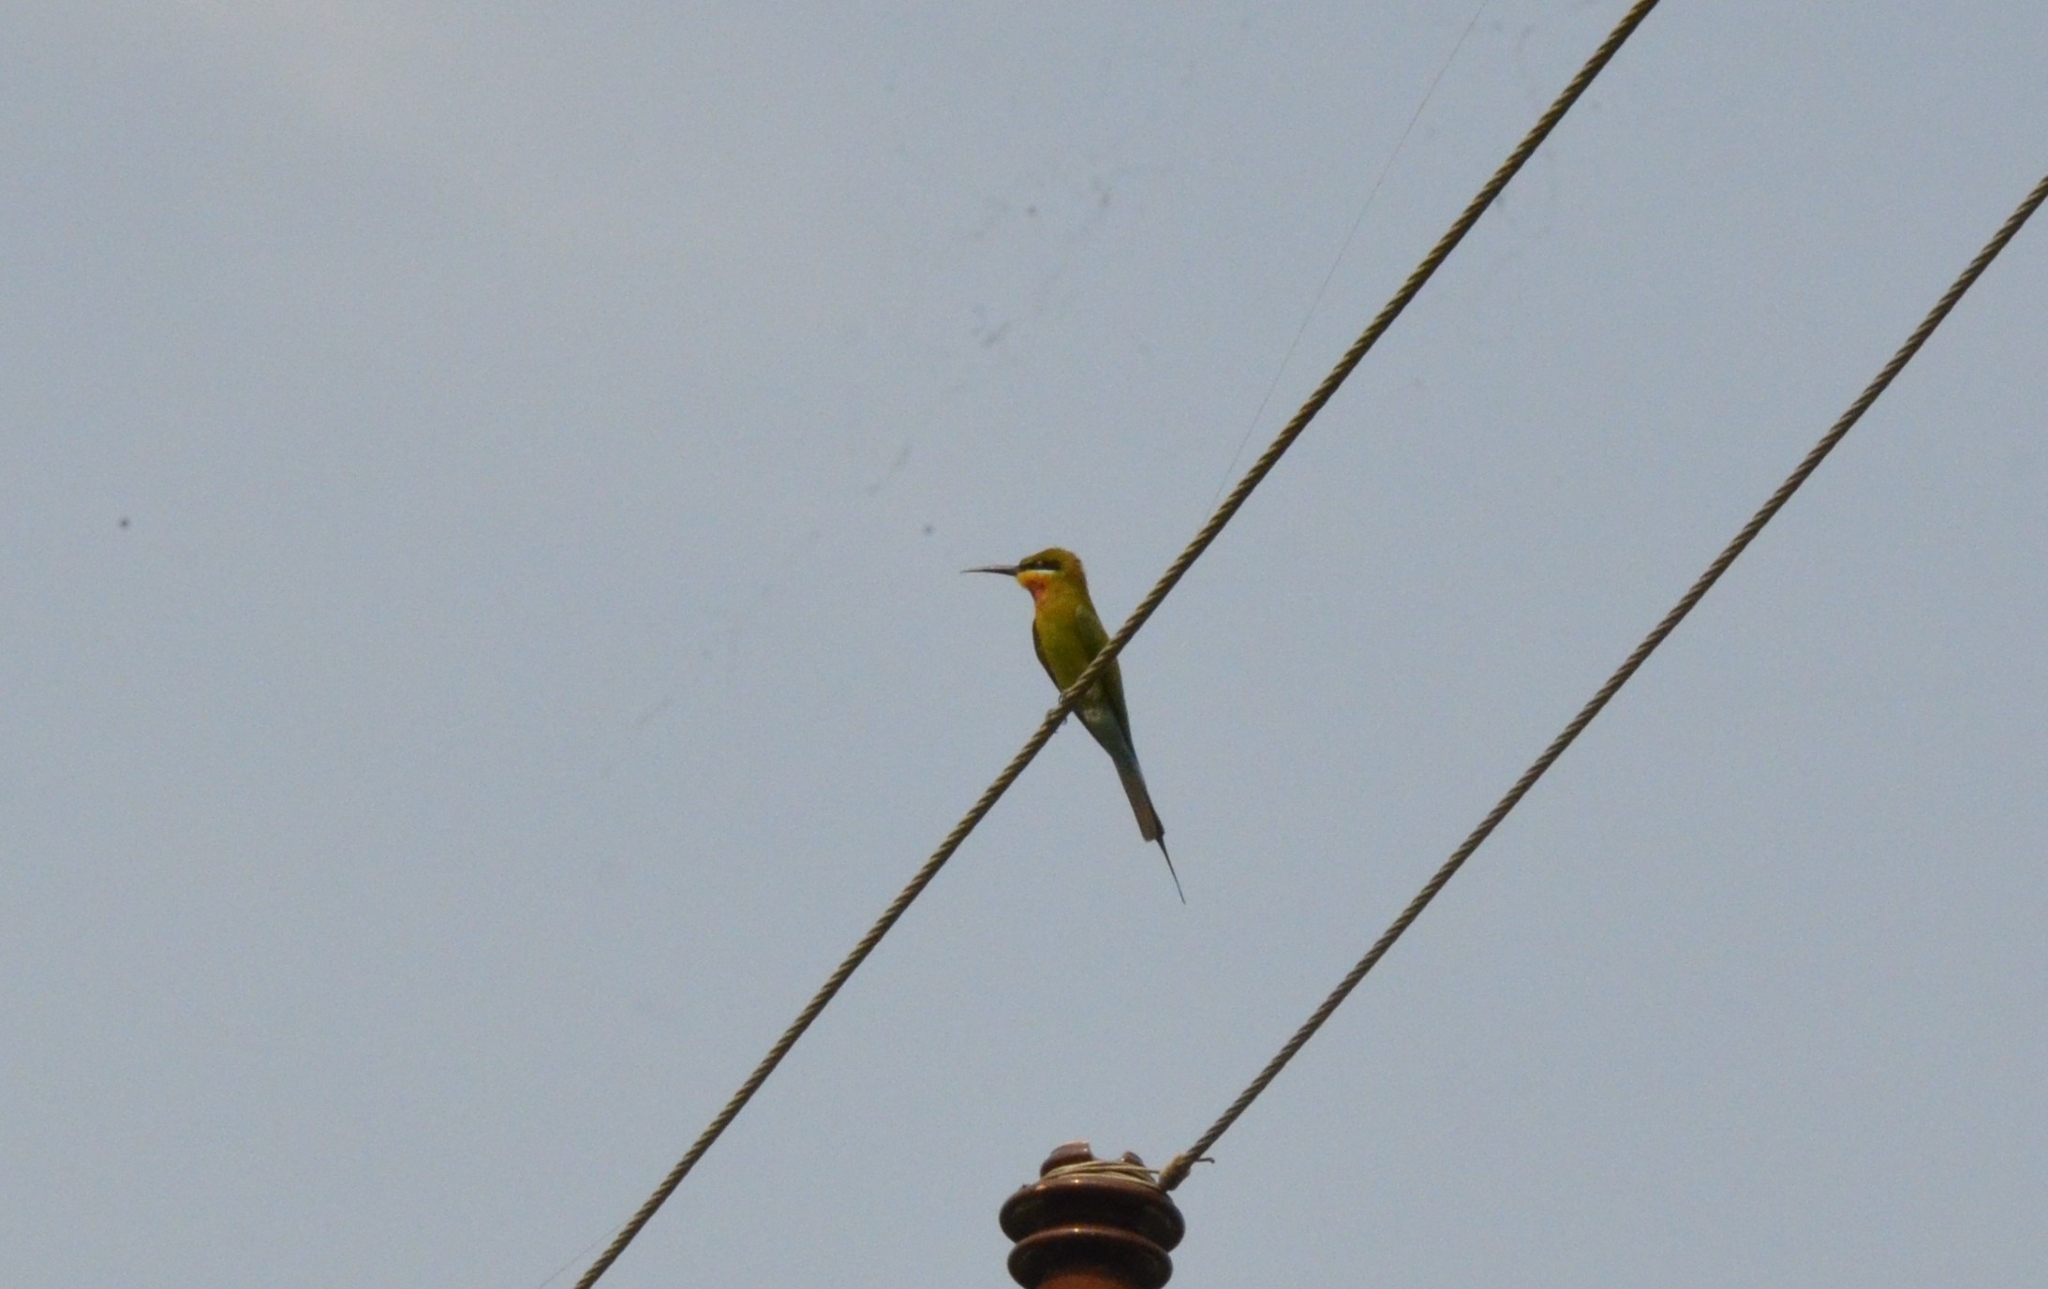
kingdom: Animalia
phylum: Chordata
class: Aves
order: Coraciiformes
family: Meropidae
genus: Merops
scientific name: Merops philippinus
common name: Blue-tailed bee-eater
